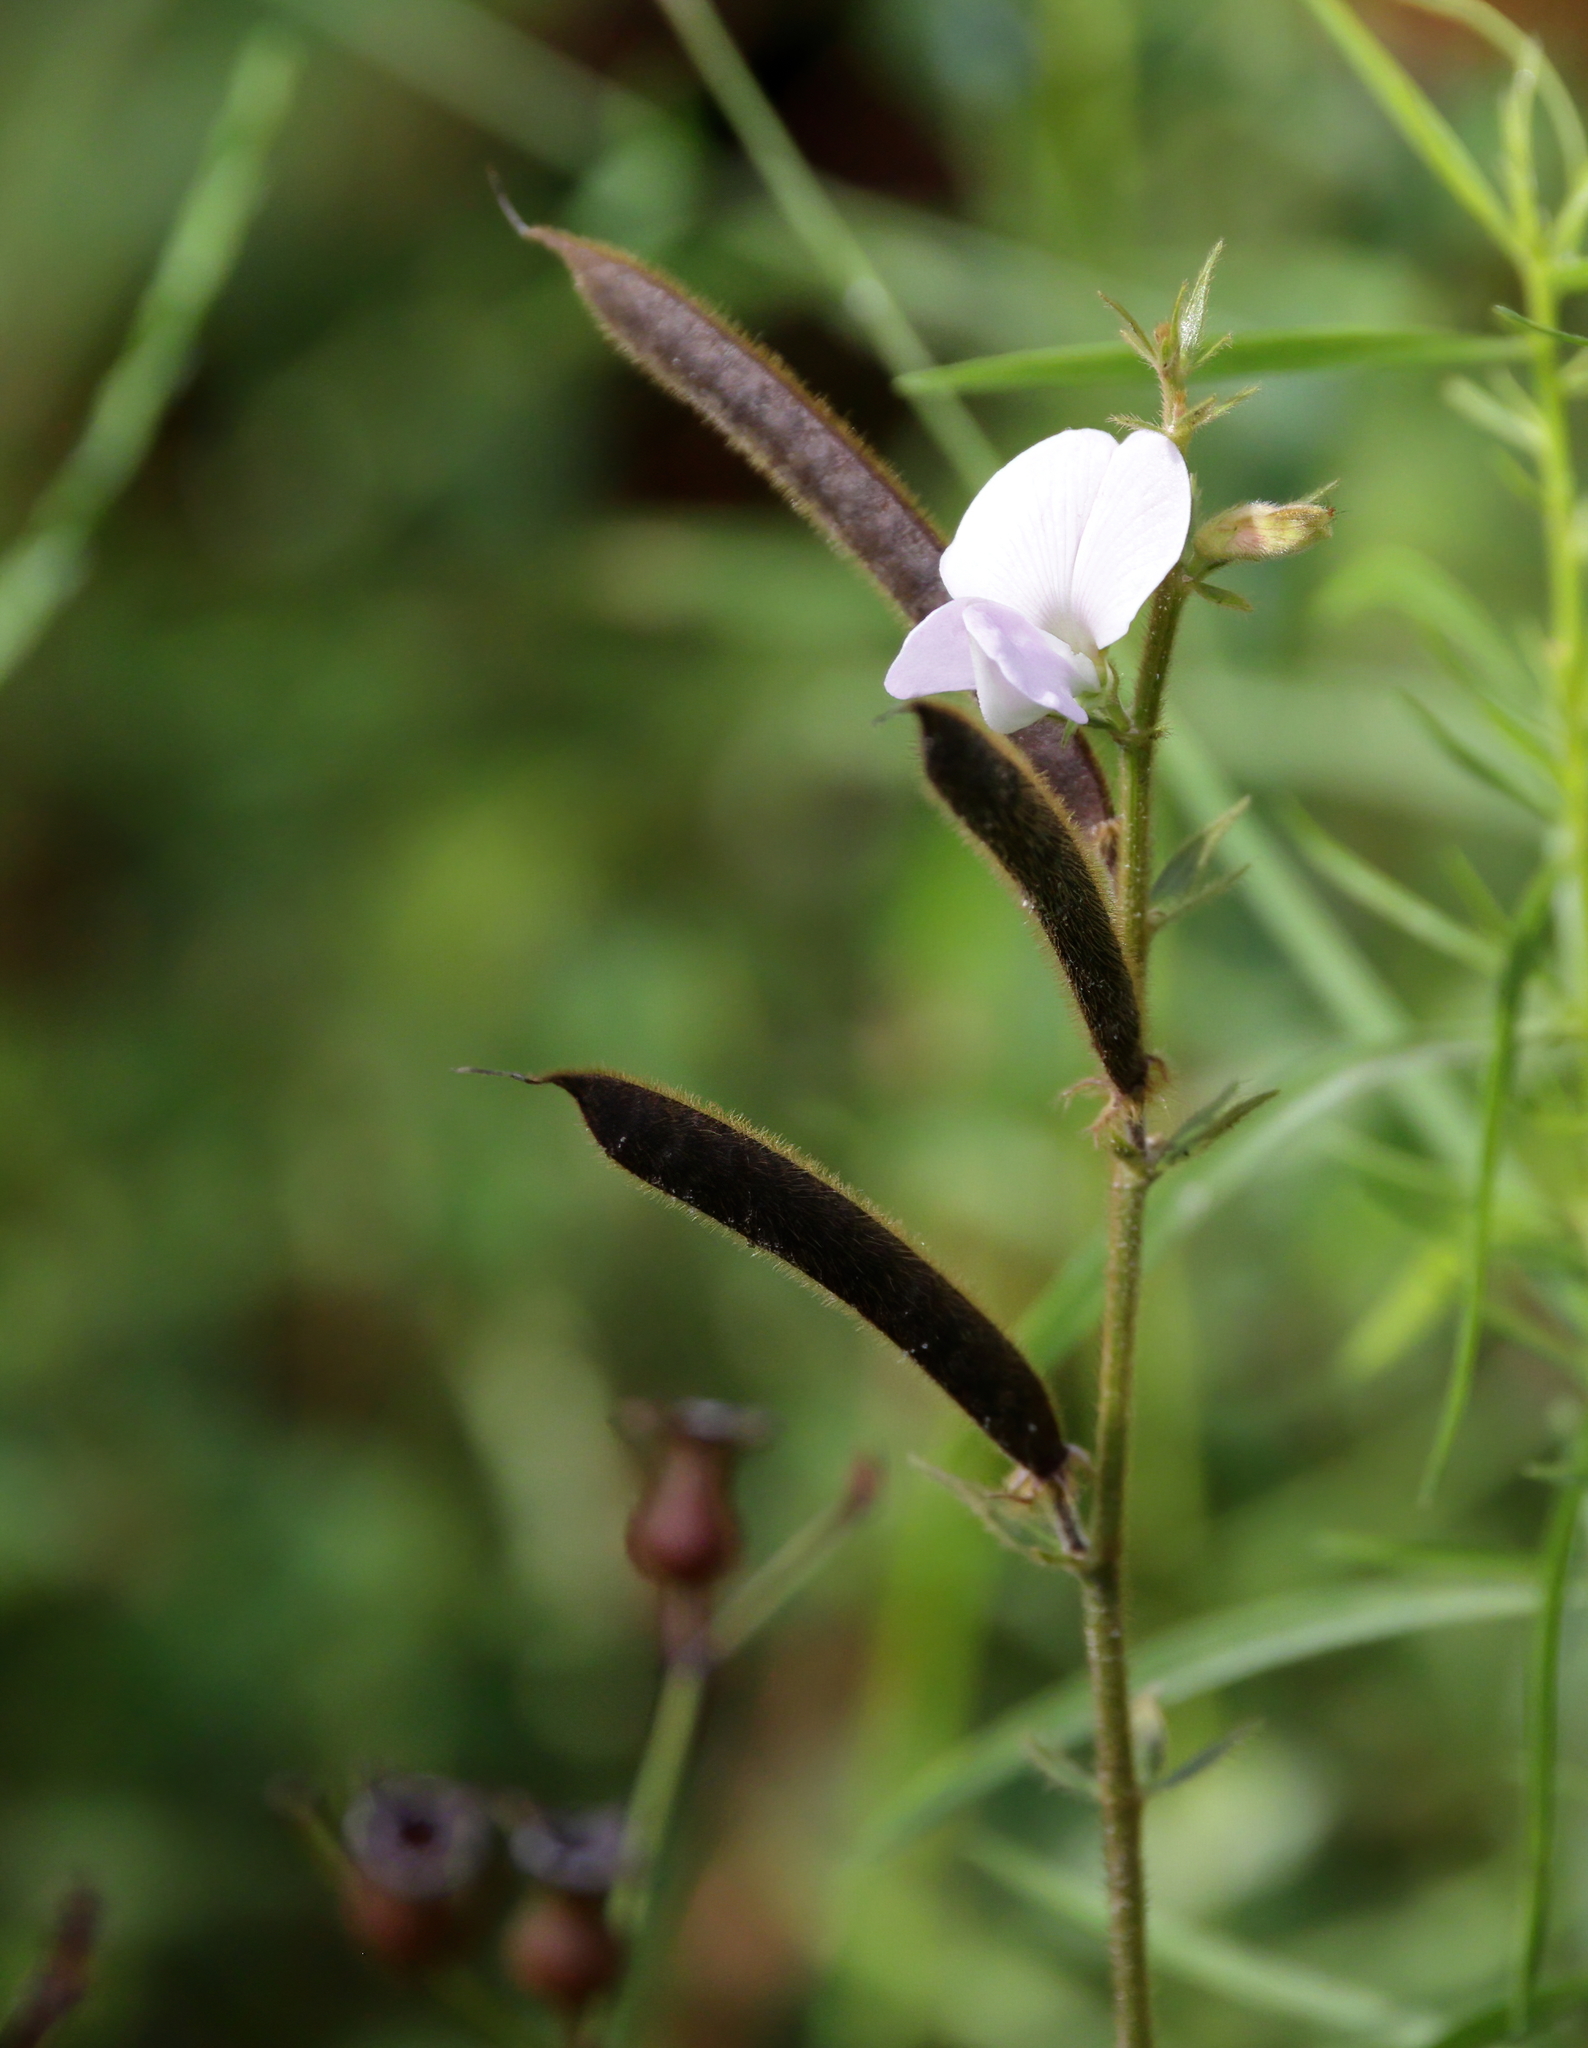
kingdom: Plantae
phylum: Tracheophyta
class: Magnoliopsida
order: Fabales
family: Fabaceae
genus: Tephrosia
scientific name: Tephrosia spicata
